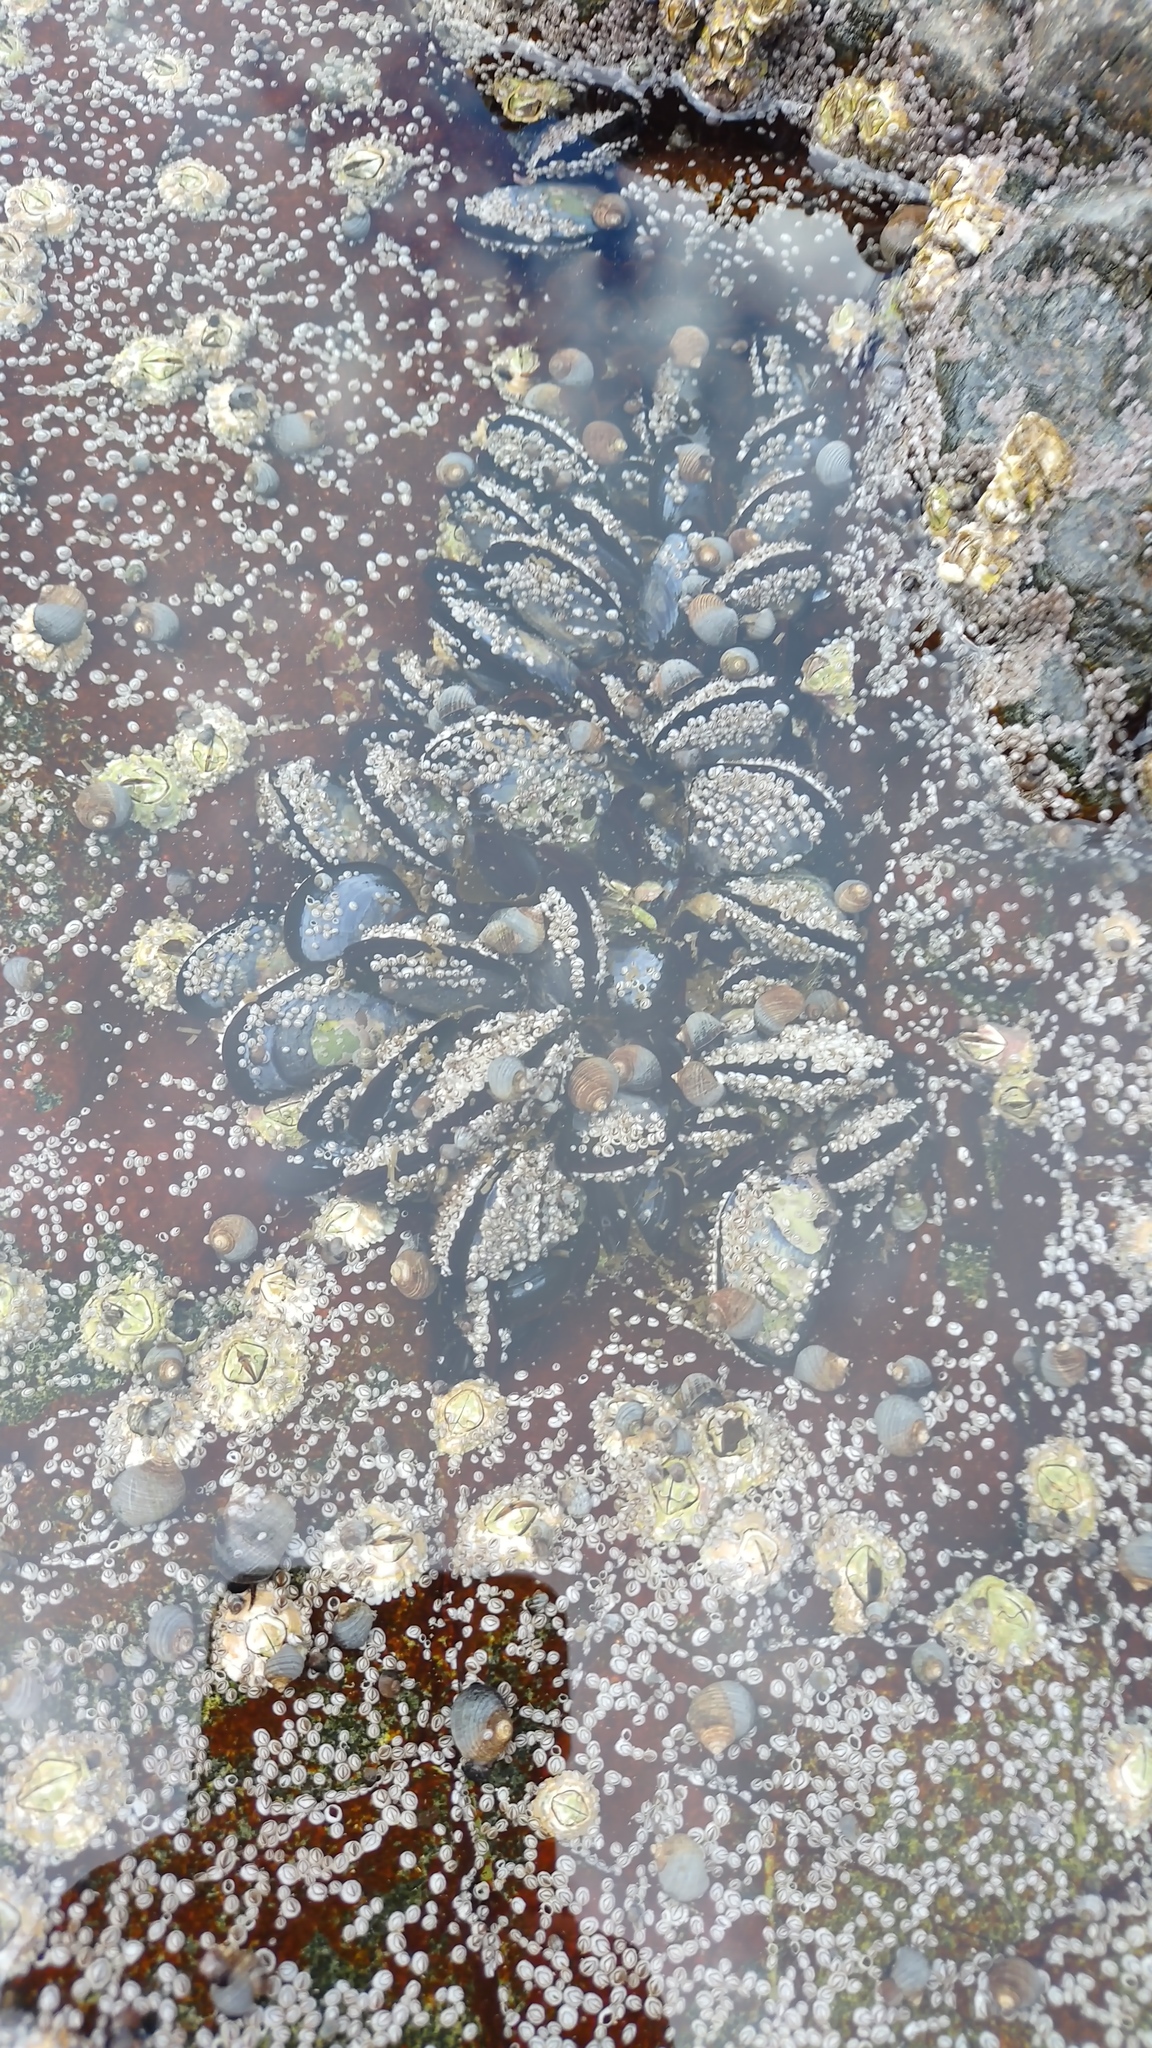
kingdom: Animalia
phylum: Mollusca
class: Bivalvia
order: Mytilida
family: Mytilidae
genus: Mytilus
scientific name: Mytilus edulis
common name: Blue mussel
